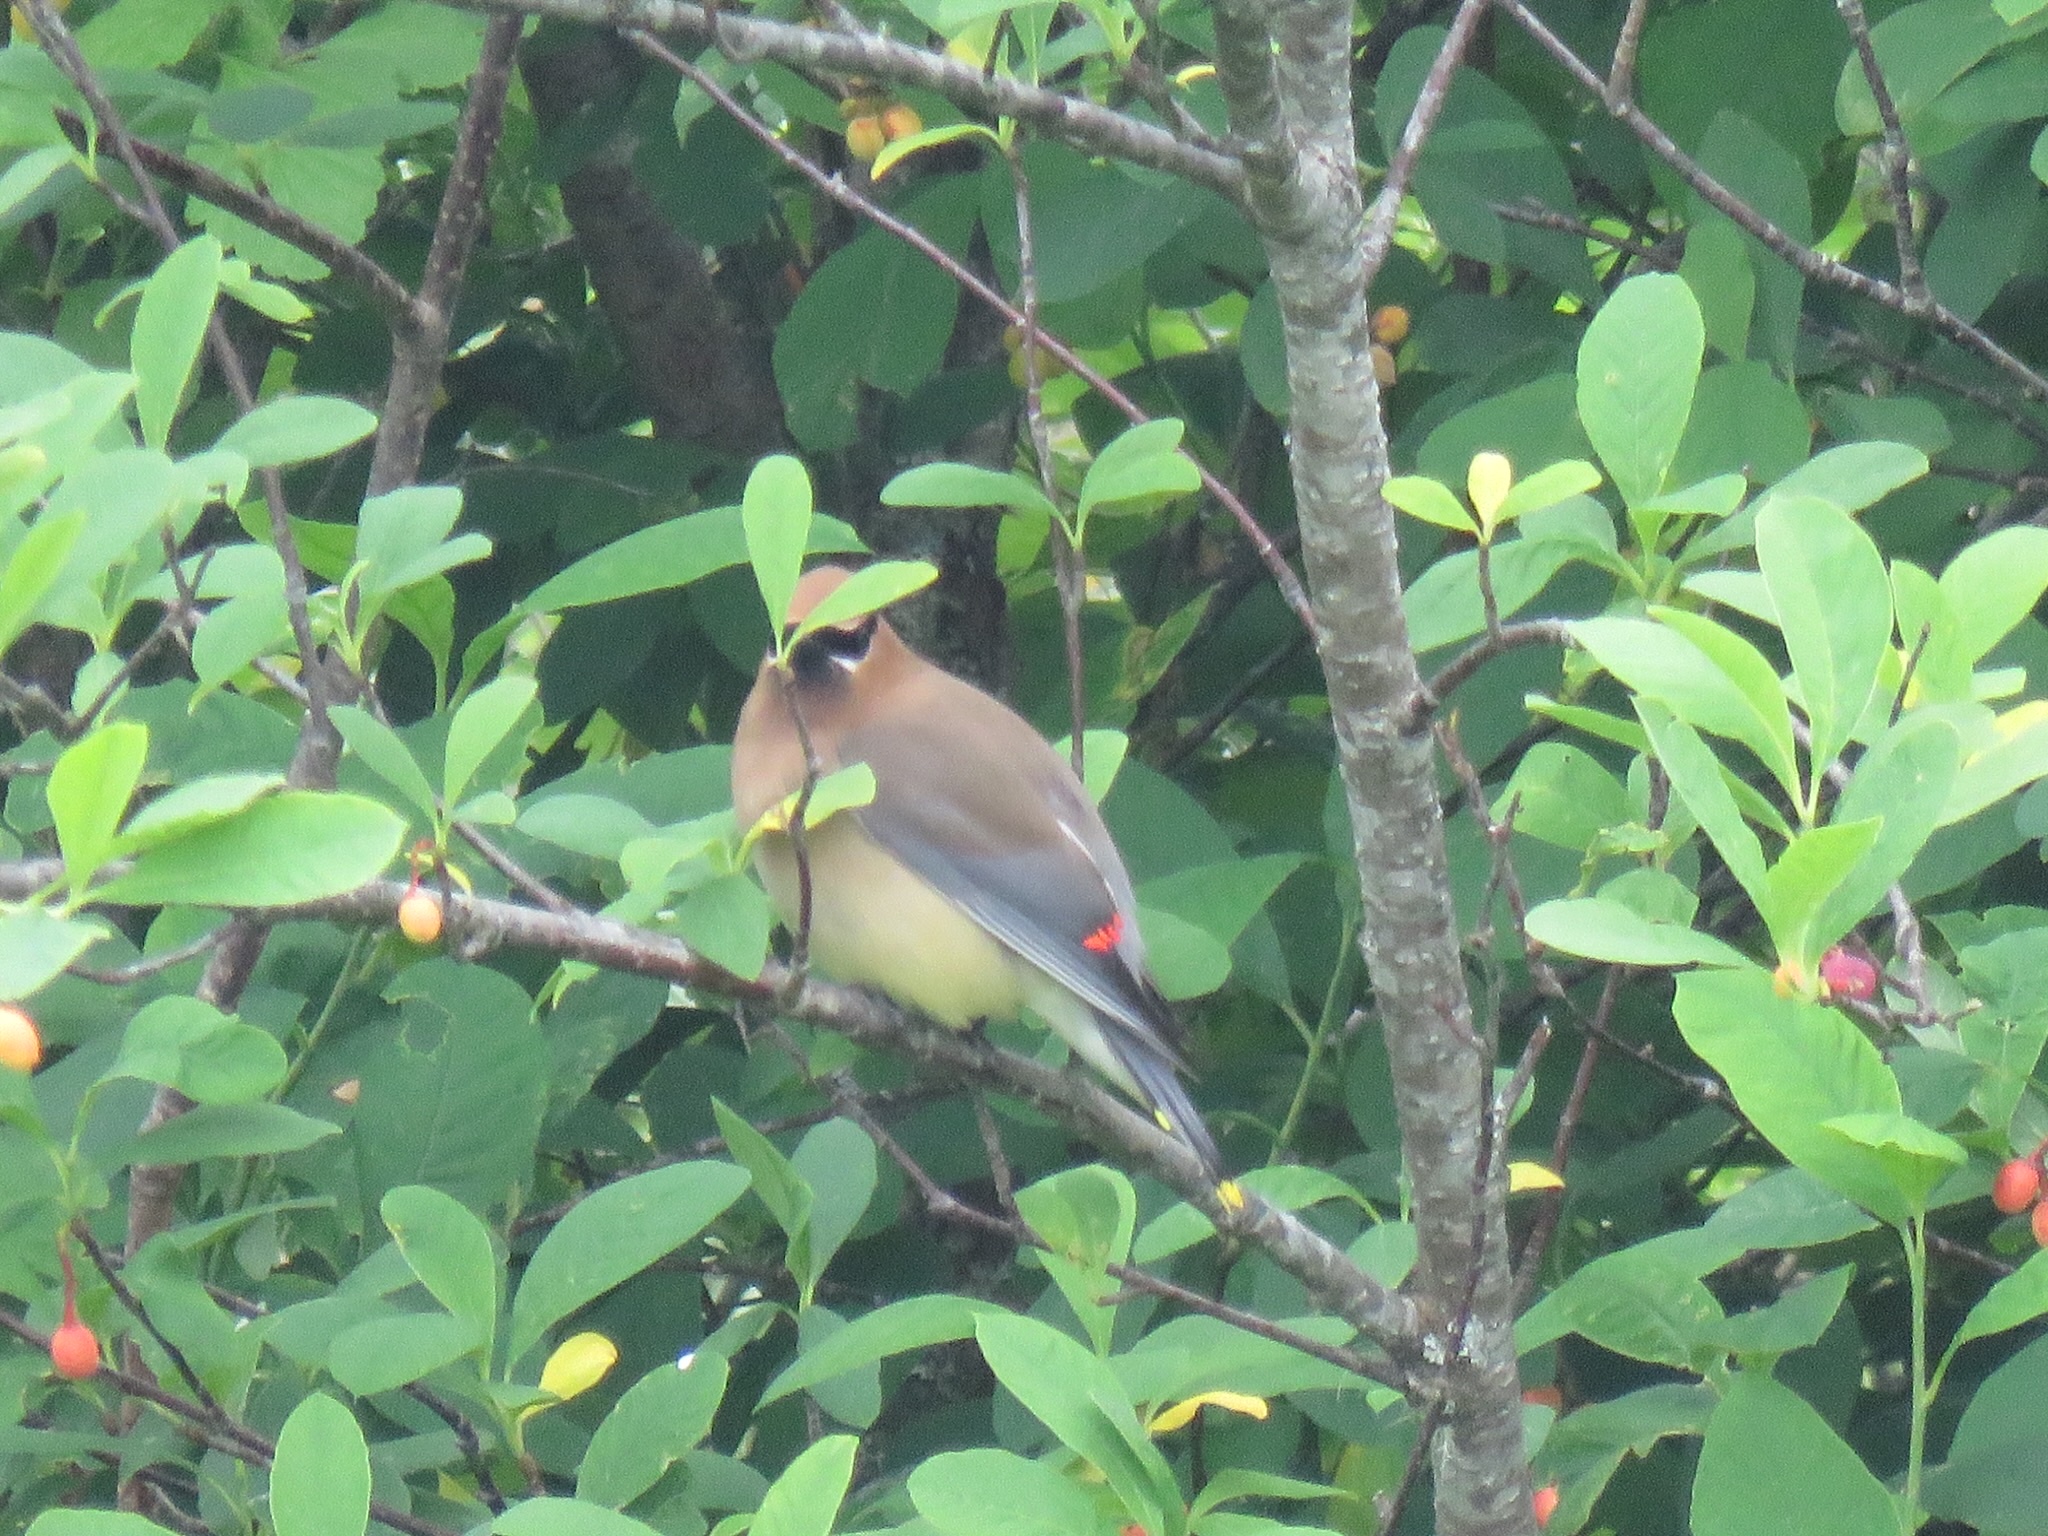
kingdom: Animalia
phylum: Chordata
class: Aves
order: Passeriformes
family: Bombycillidae
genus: Bombycilla
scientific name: Bombycilla cedrorum
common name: Cedar waxwing
